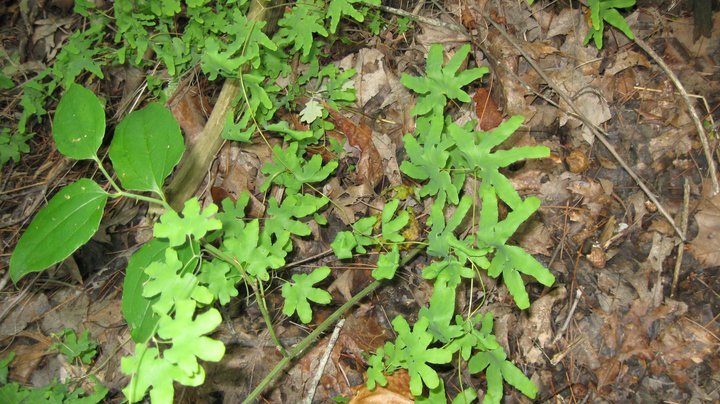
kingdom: Plantae
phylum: Tracheophyta
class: Polypodiopsida
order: Schizaeales
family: Lygodiaceae
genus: Lygodium
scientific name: Lygodium palmatum
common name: American climbing fern
